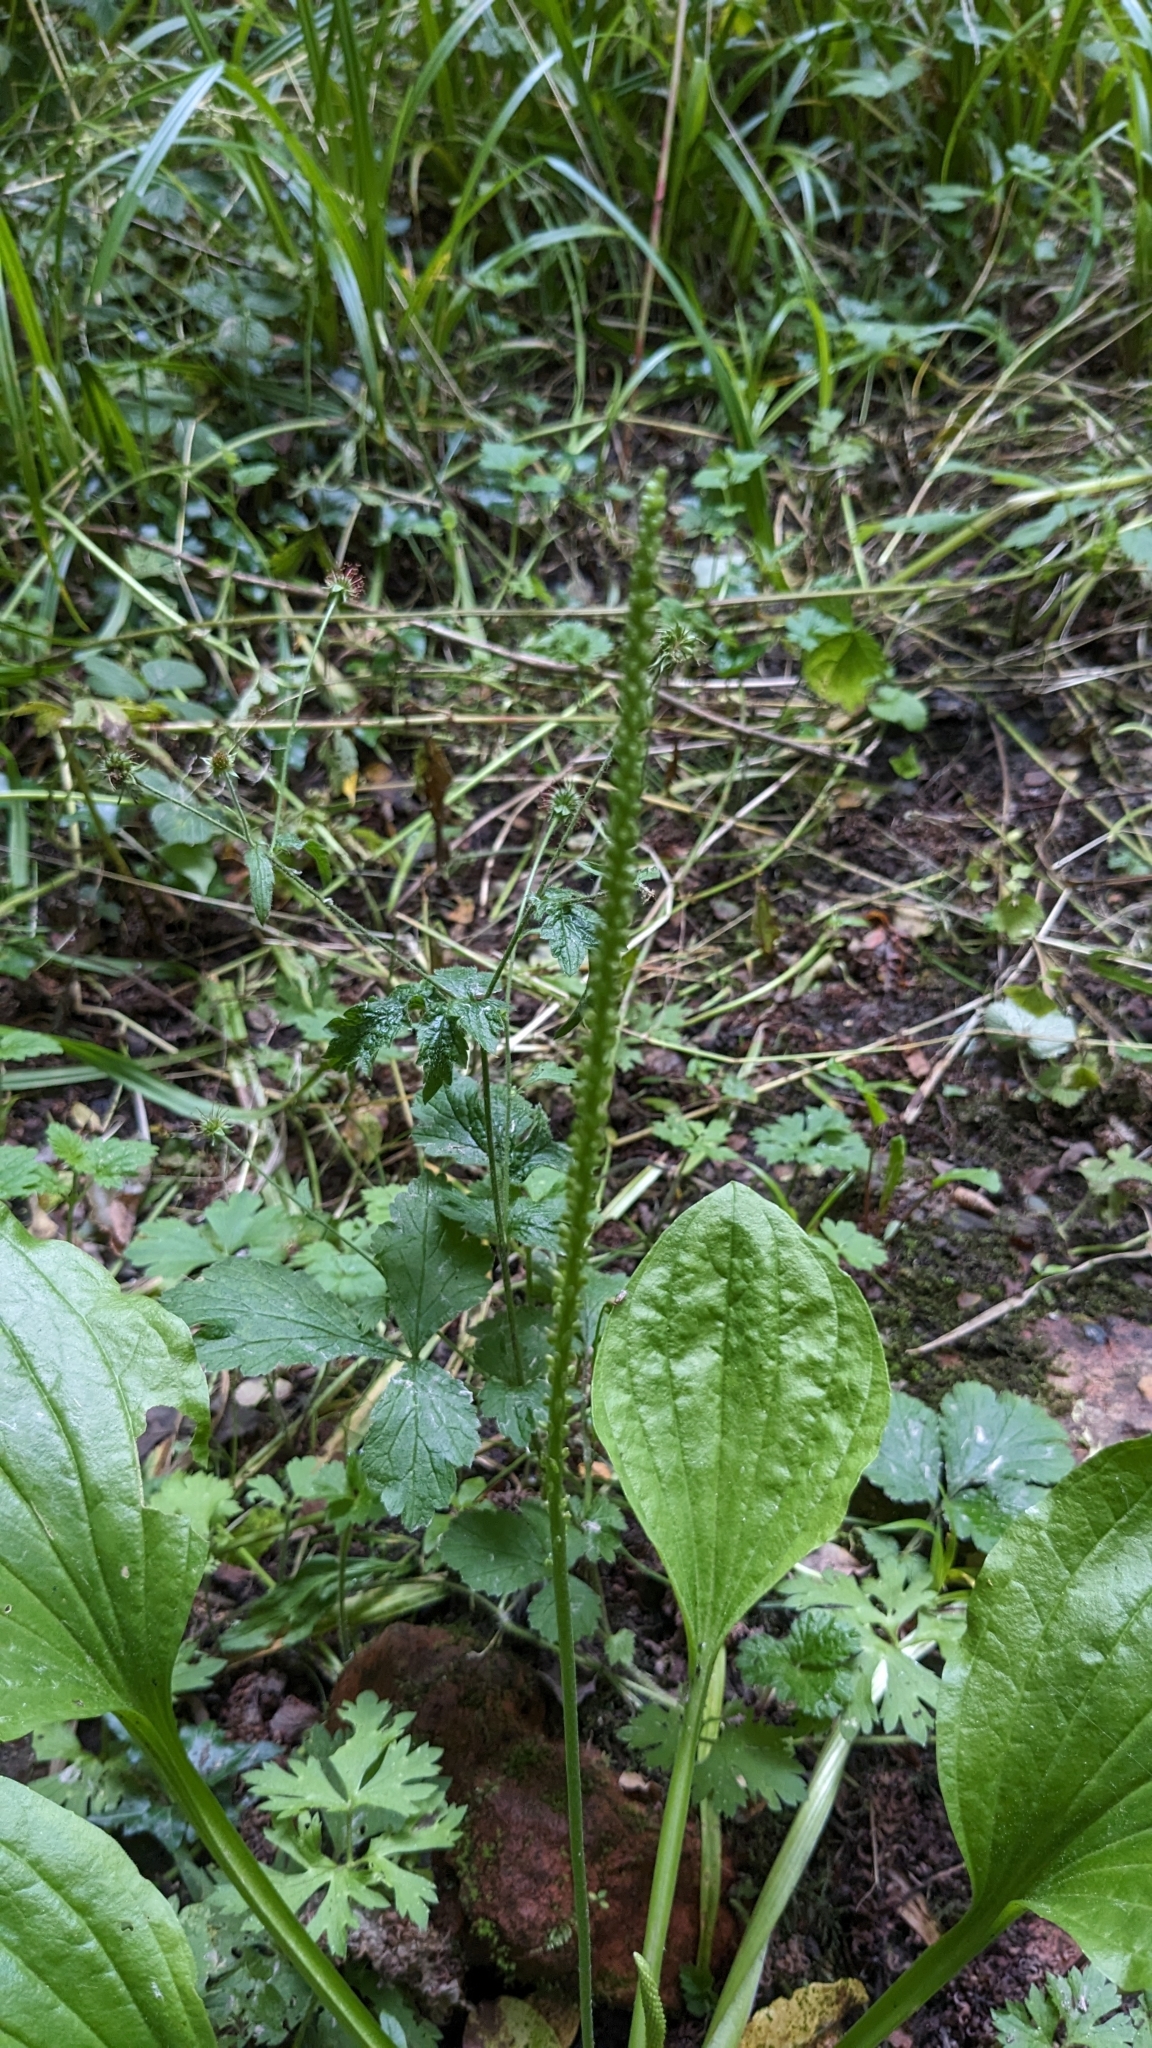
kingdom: Plantae
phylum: Tracheophyta
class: Magnoliopsida
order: Lamiales
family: Plantaginaceae
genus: Plantago
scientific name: Plantago major
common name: Common plantain
